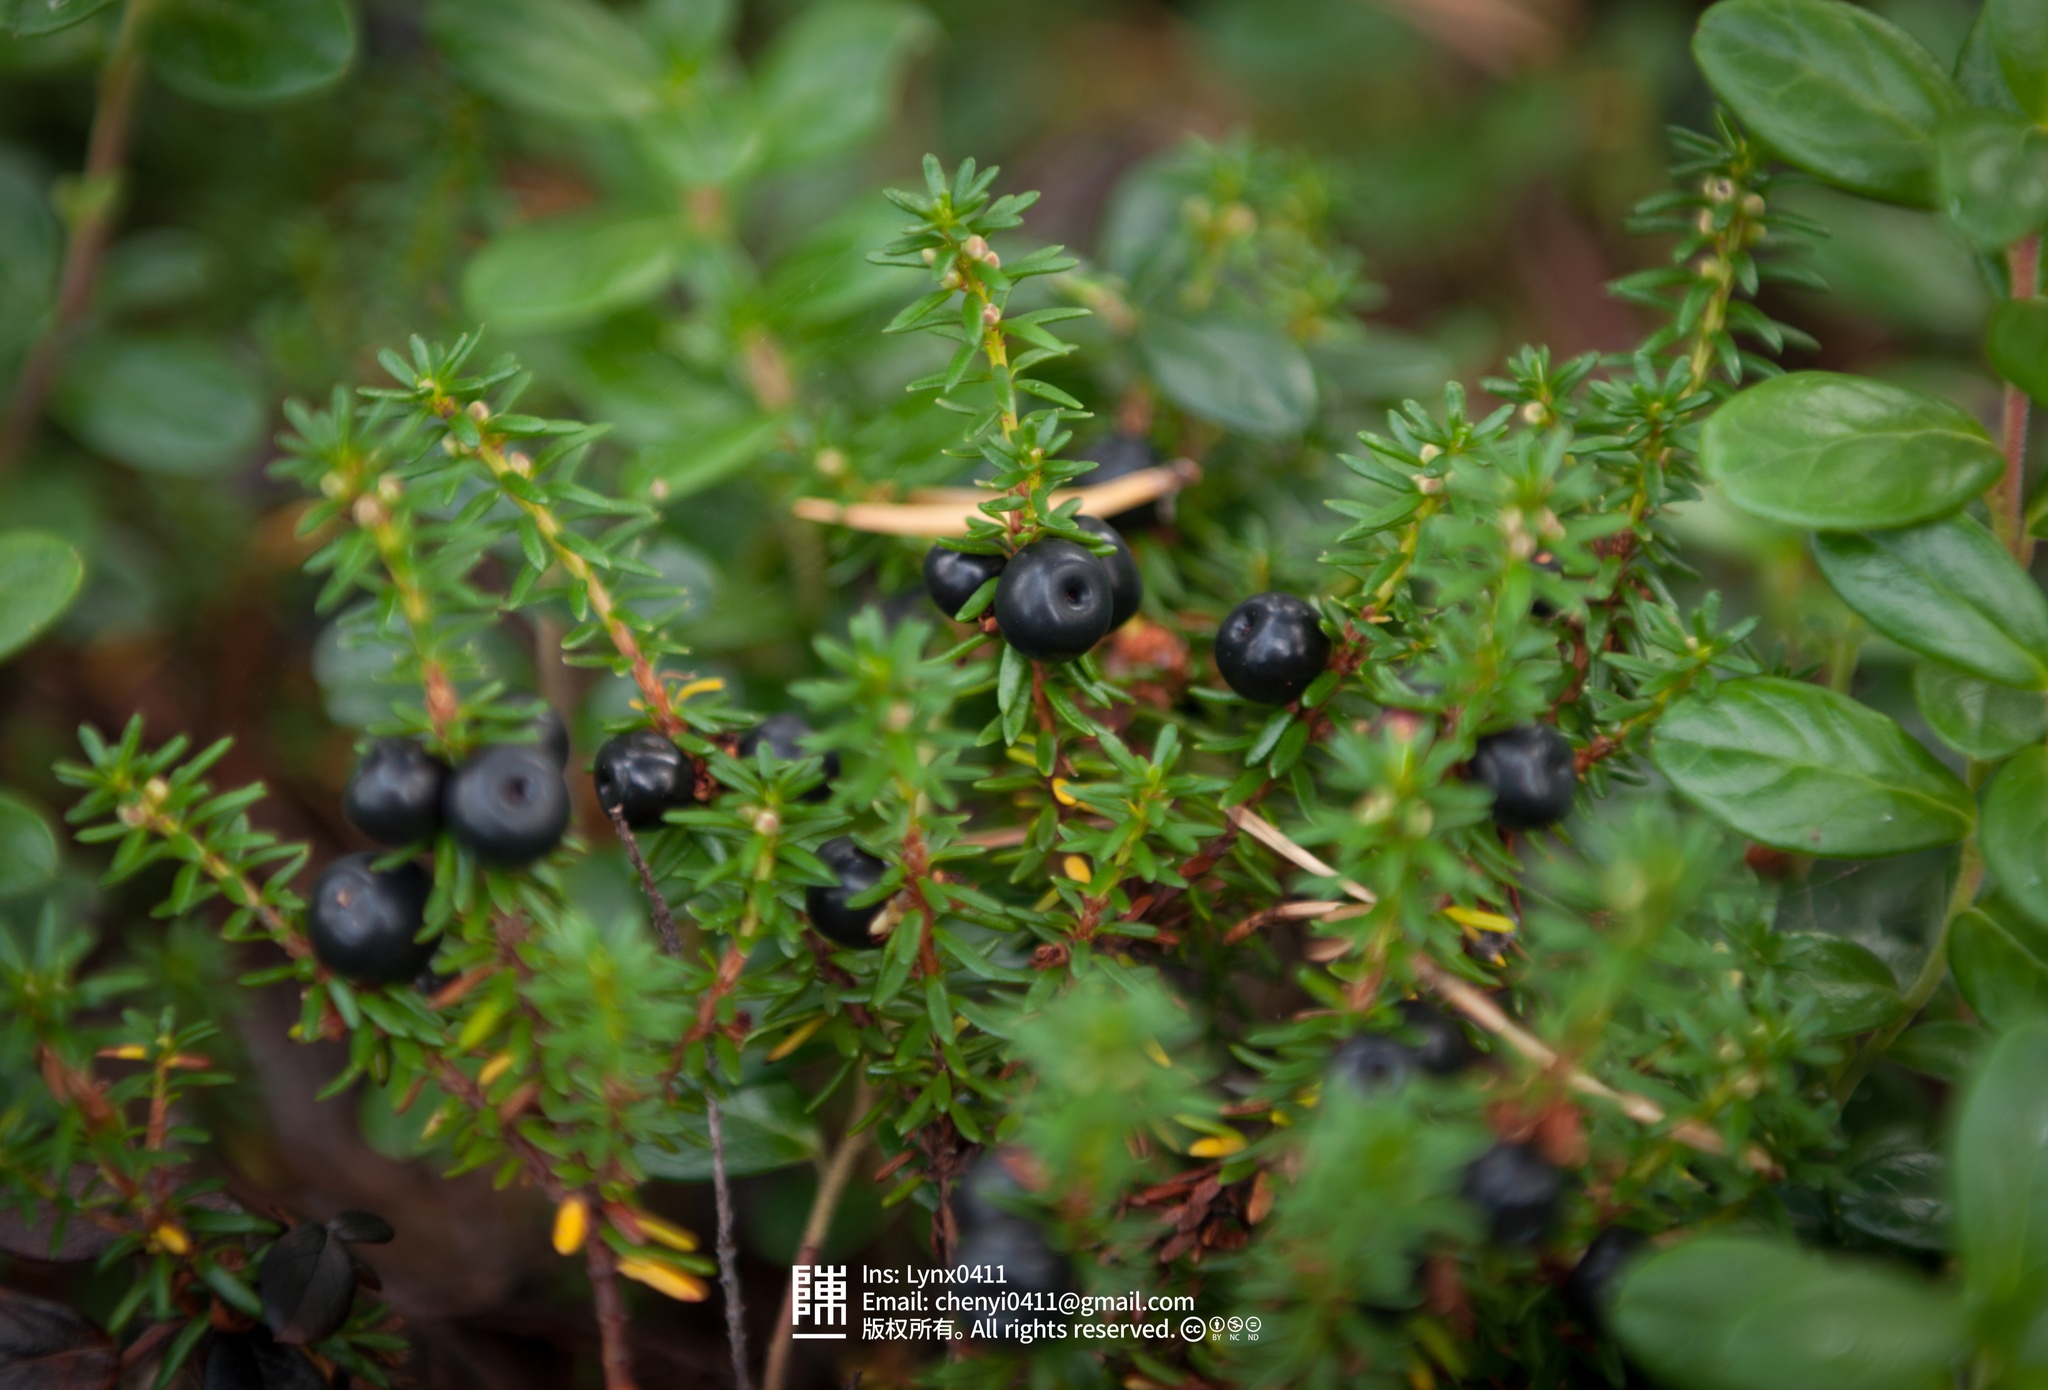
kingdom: Plantae
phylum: Tracheophyta
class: Magnoliopsida
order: Ericales
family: Ericaceae
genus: Empetrum
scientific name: Empetrum nigrum
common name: Black crowberry
